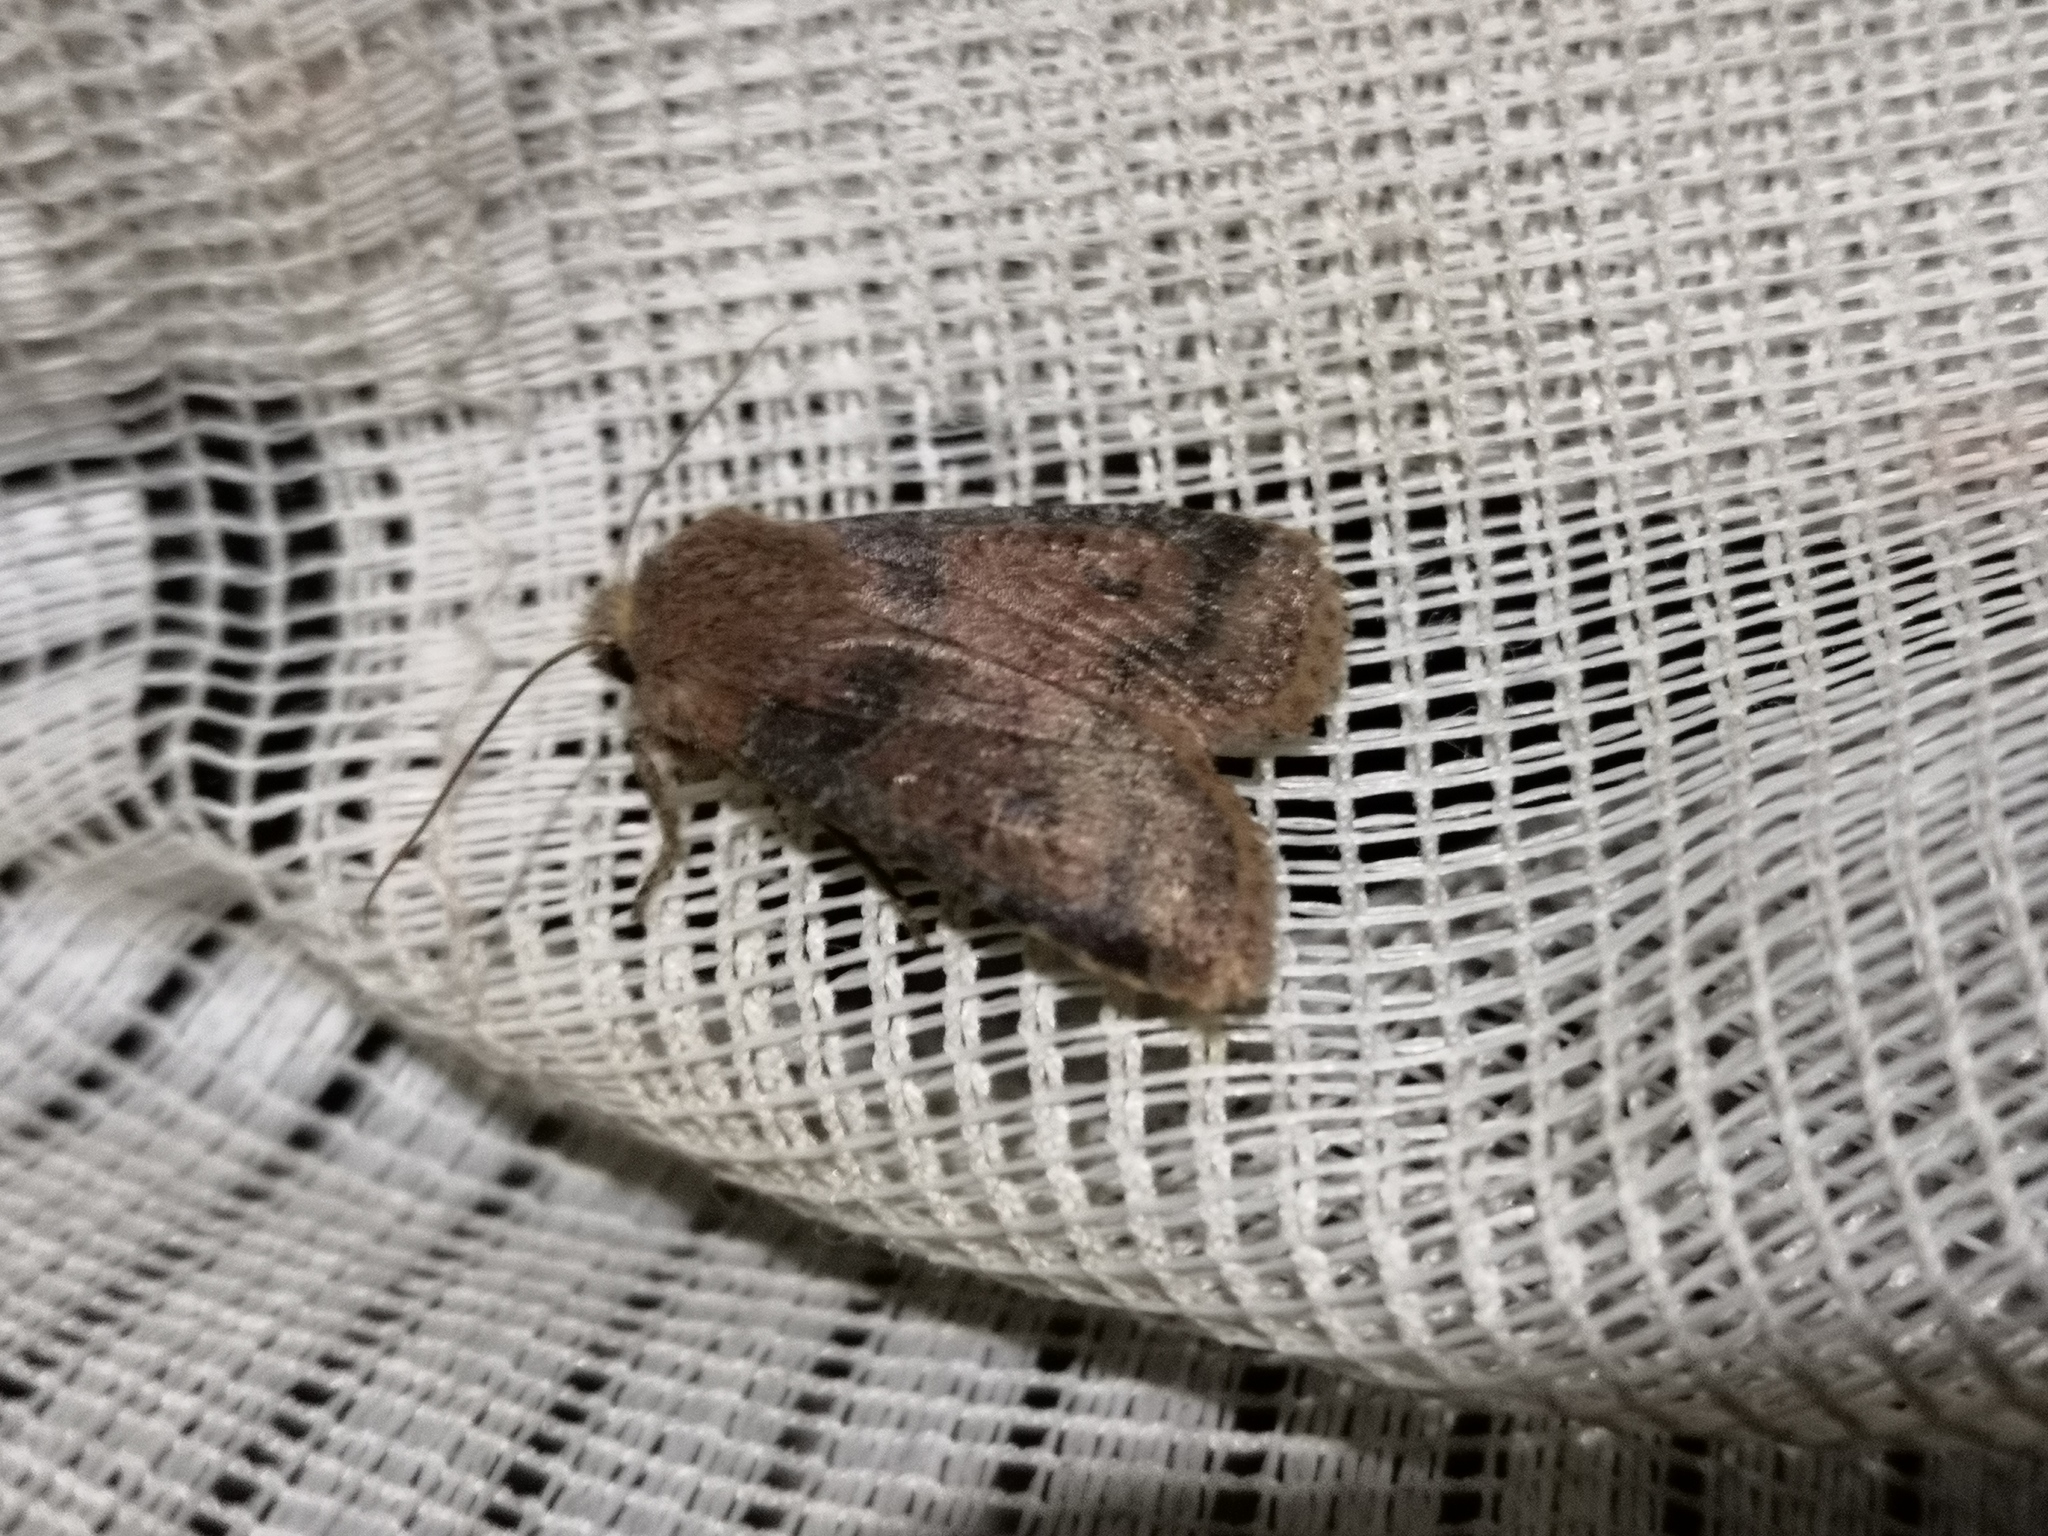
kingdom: Animalia
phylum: Arthropoda
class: Insecta
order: Lepidoptera
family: Noctuidae
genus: Conistra
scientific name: Conistra vaccinii
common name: Chestnut
